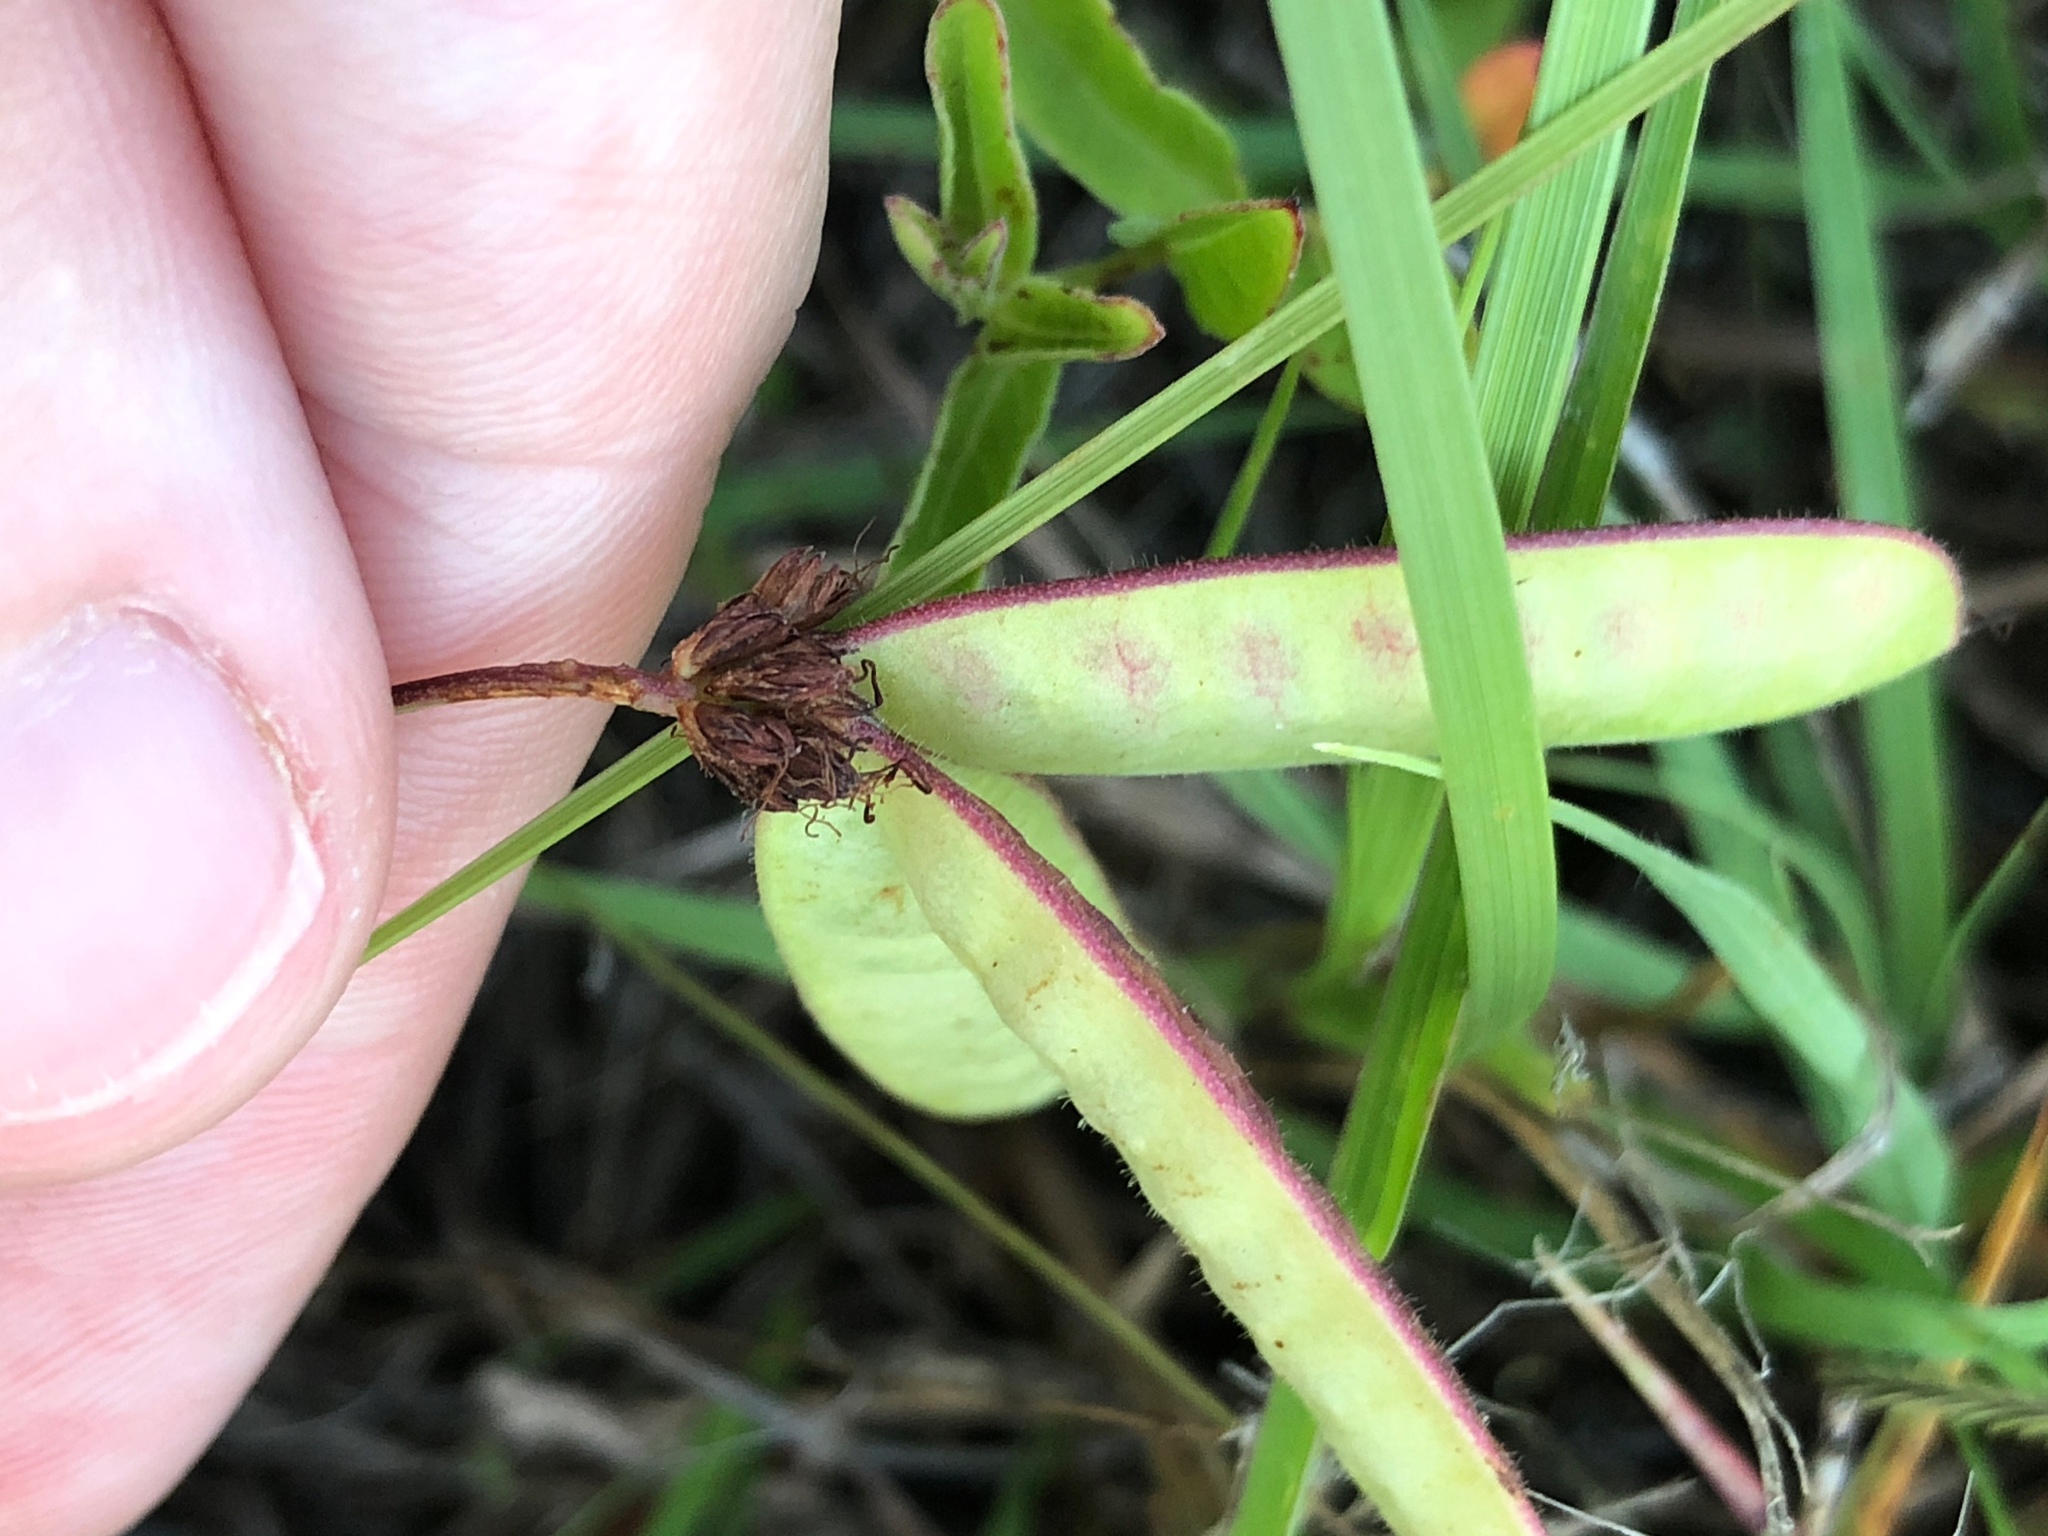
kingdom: Plantae
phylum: Tracheophyta
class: Magnoliopsida
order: Fabales
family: Fabaceae
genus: Neptunia
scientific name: Neptunia pubescens
